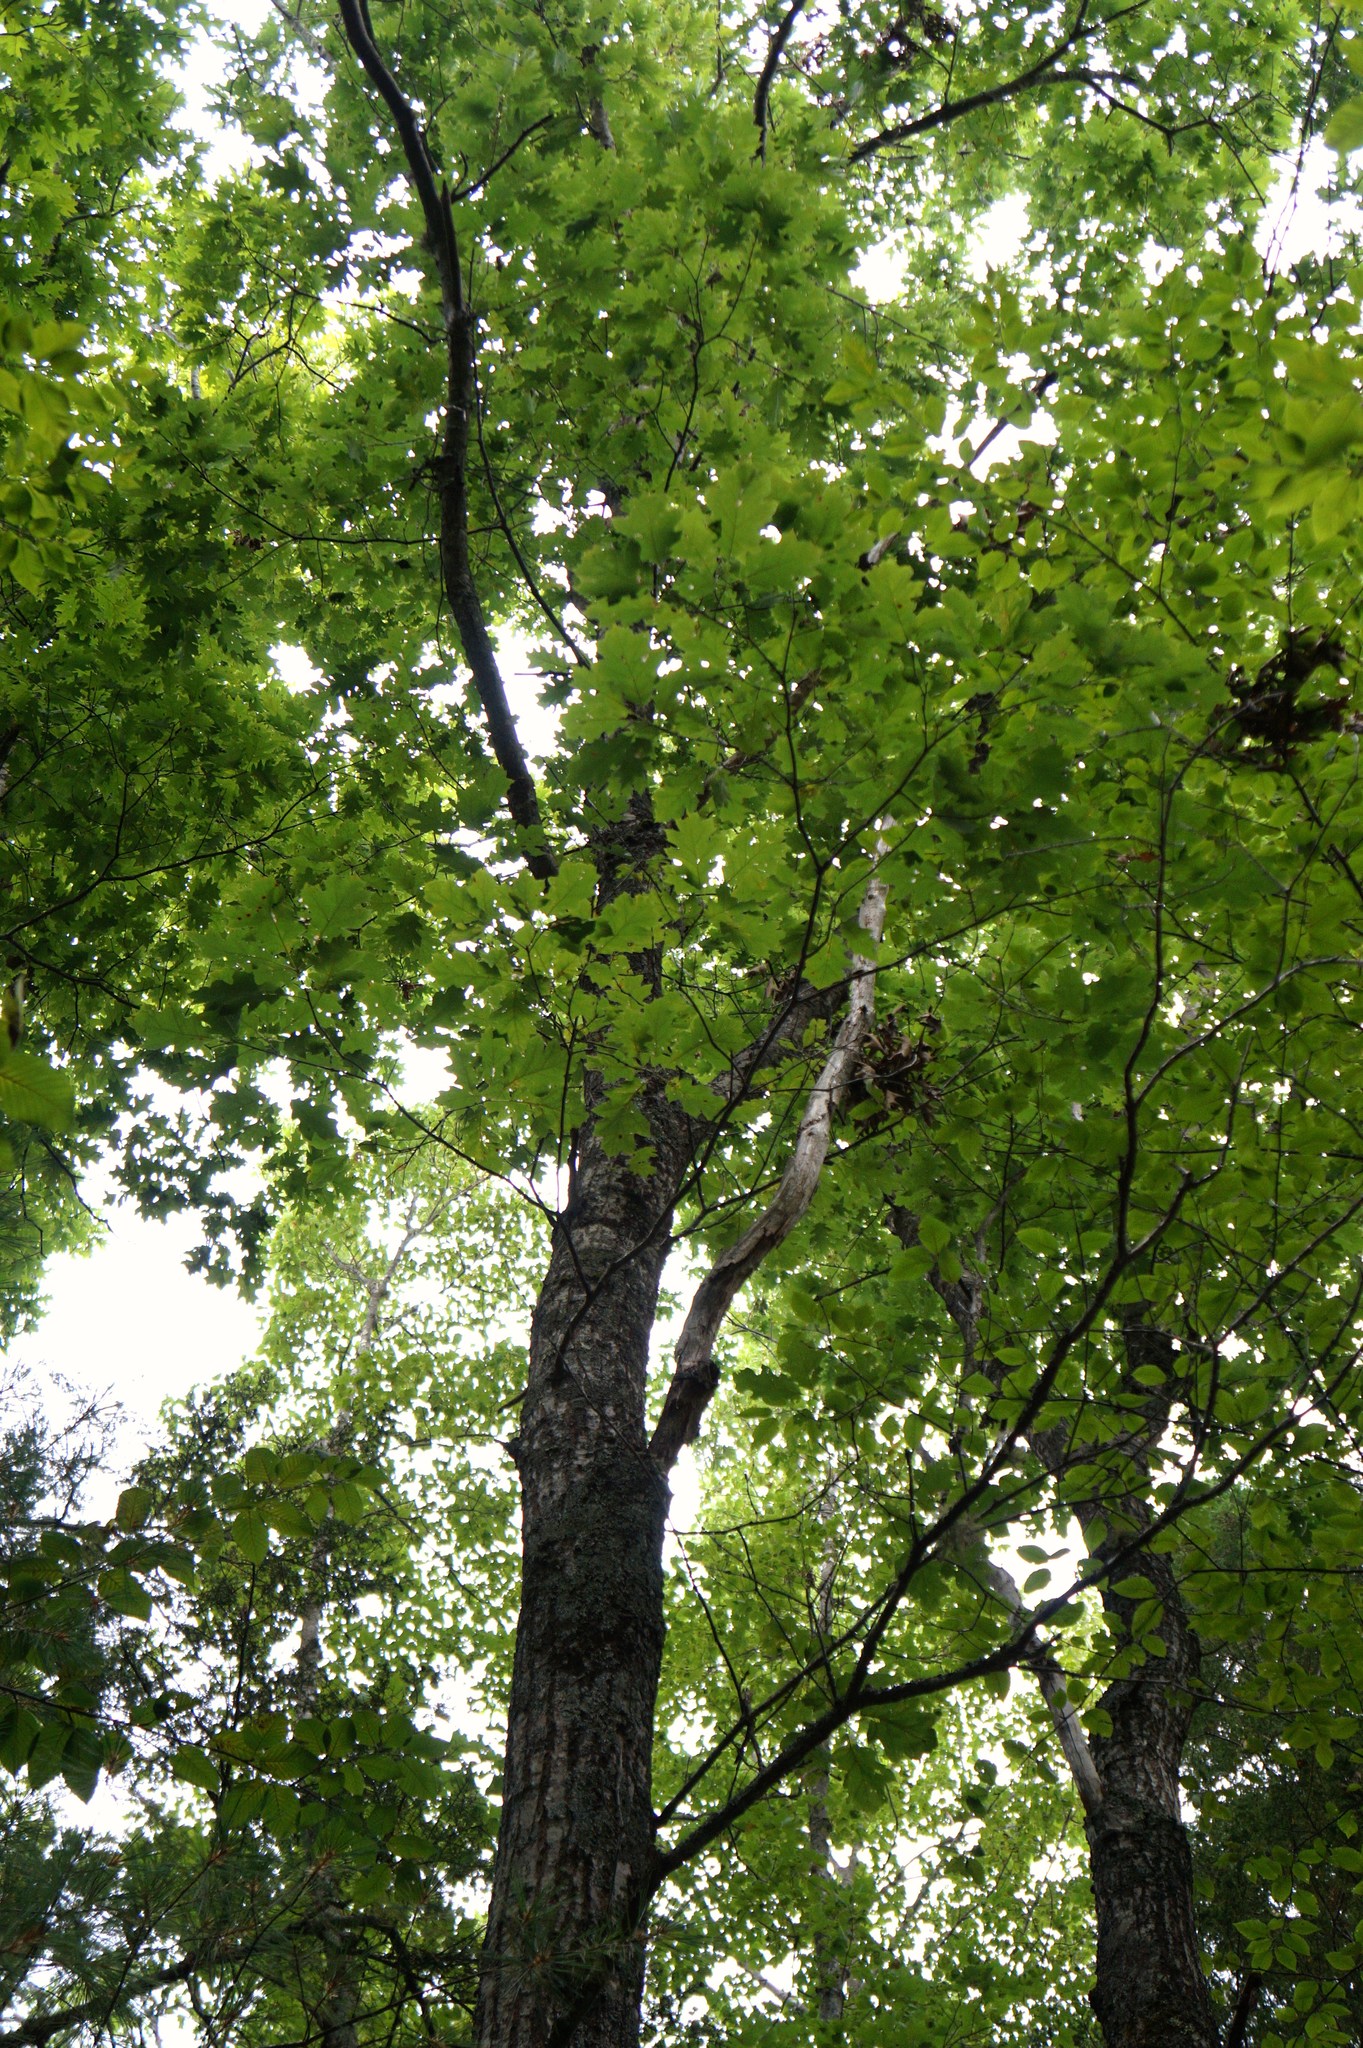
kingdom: Fungi
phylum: Basidiomycota
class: Agaricomycetes
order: Hymenochaetales
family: Hymenochaetaceae
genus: Inonotus
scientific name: Inonotus hispidus
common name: Shaggy bracket
